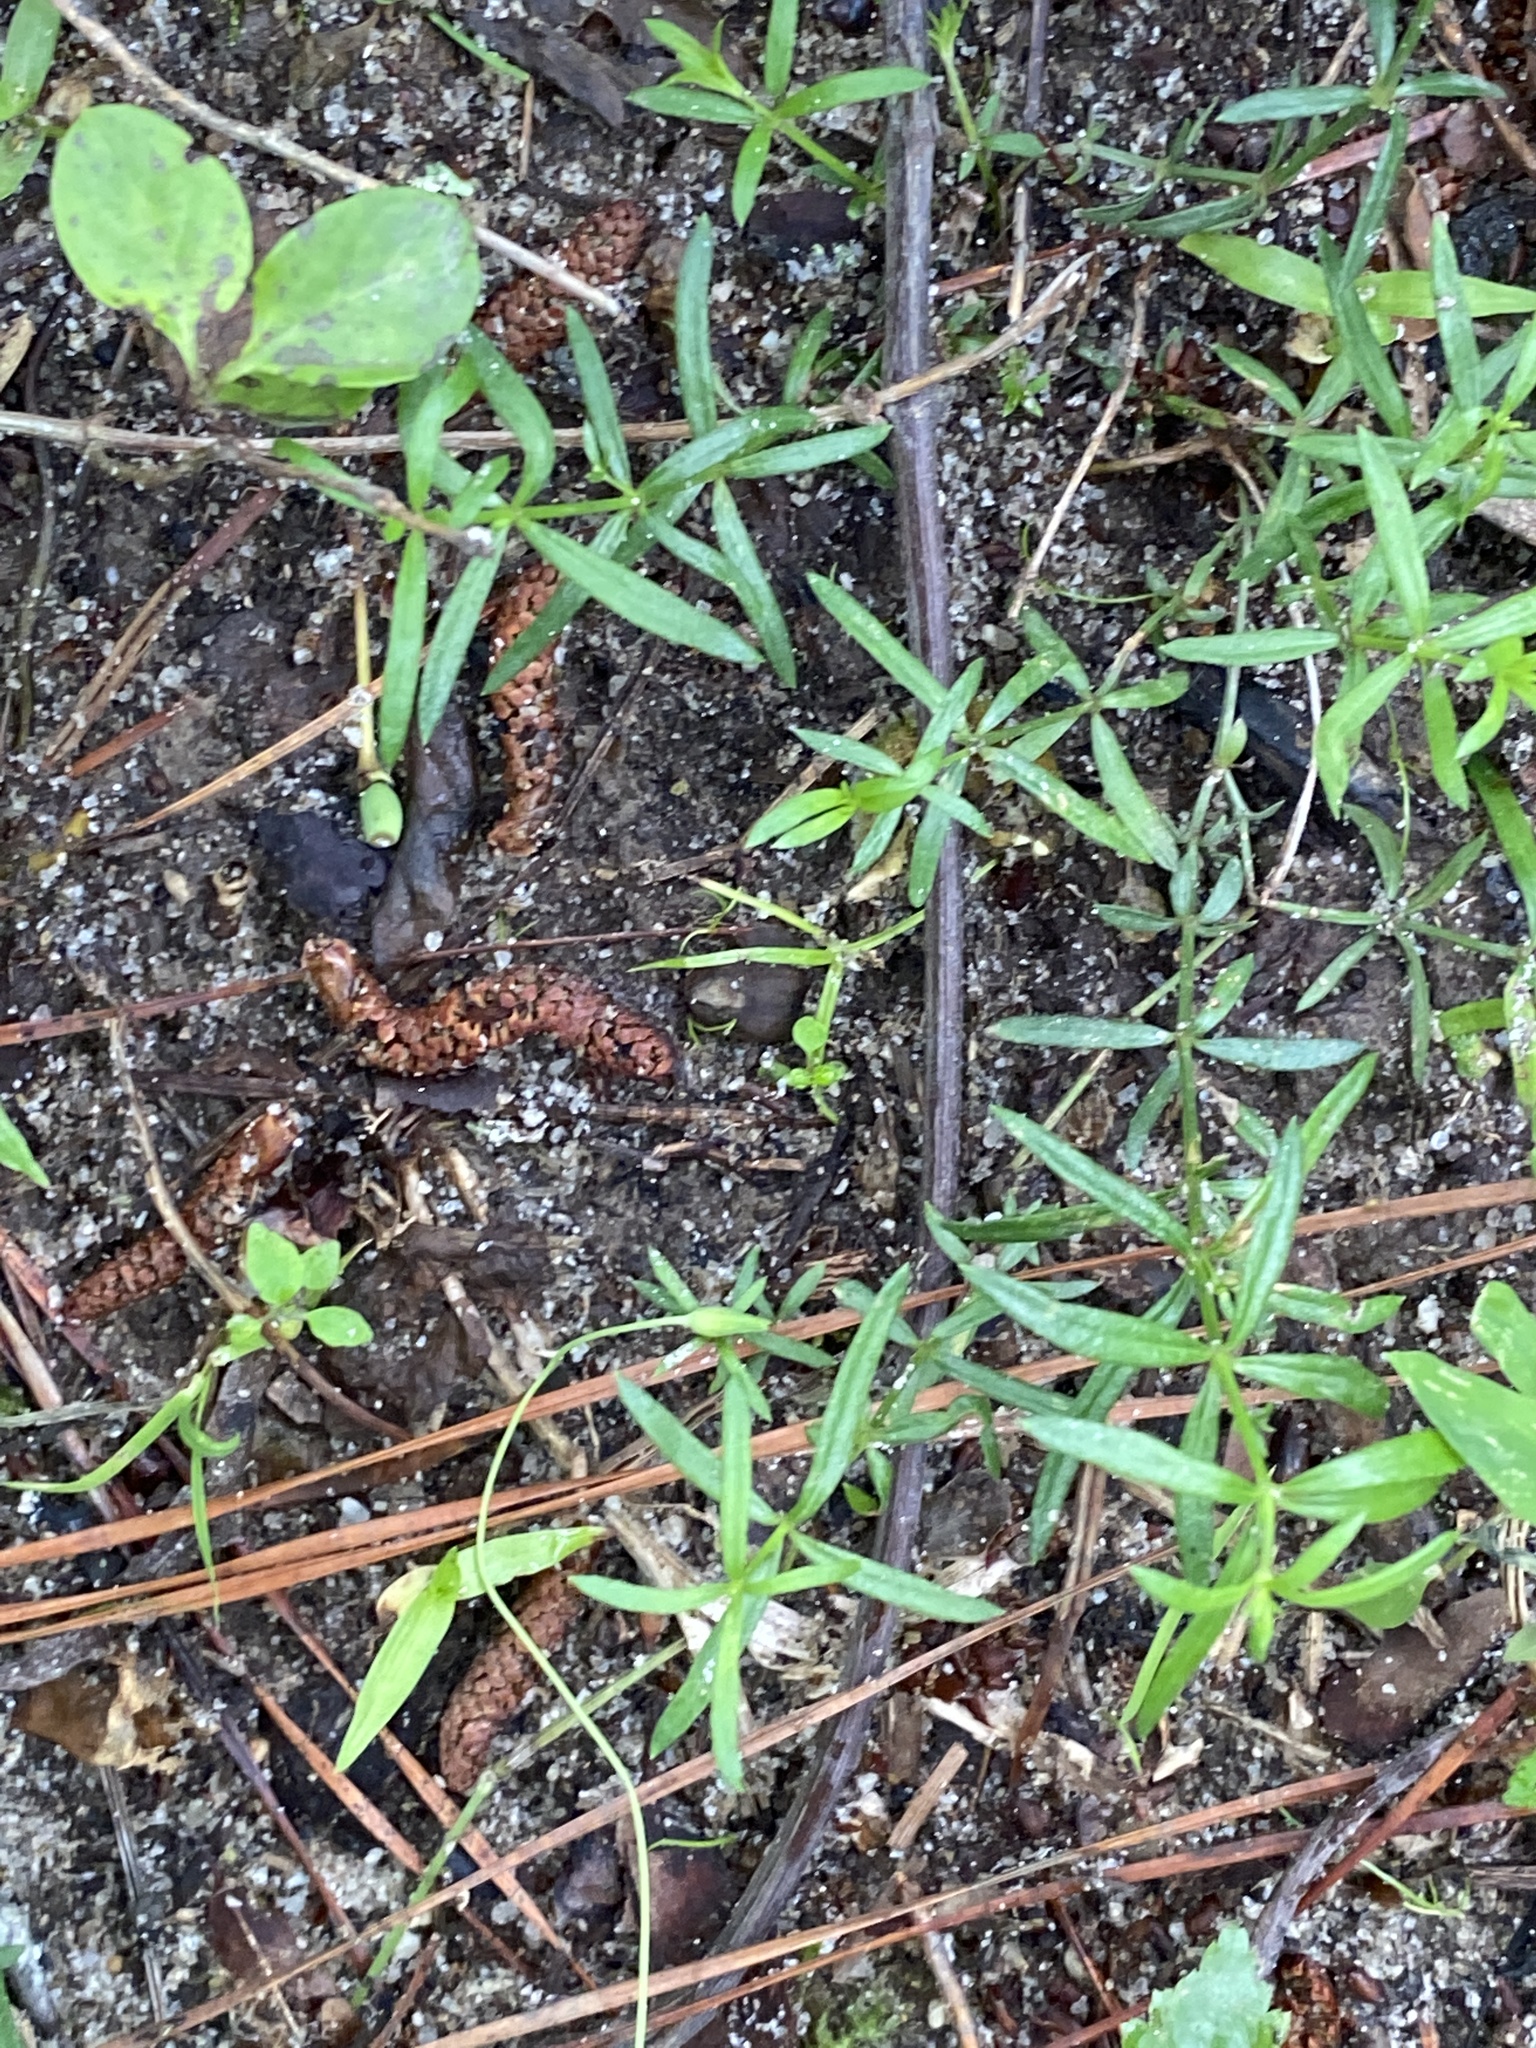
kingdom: Plantae
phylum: Tracheophyta
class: Magnoliopsida
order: Gentianales
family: Rubiaceae
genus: Galium
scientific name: Galium uniflorum
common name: One-flower bedstraw
